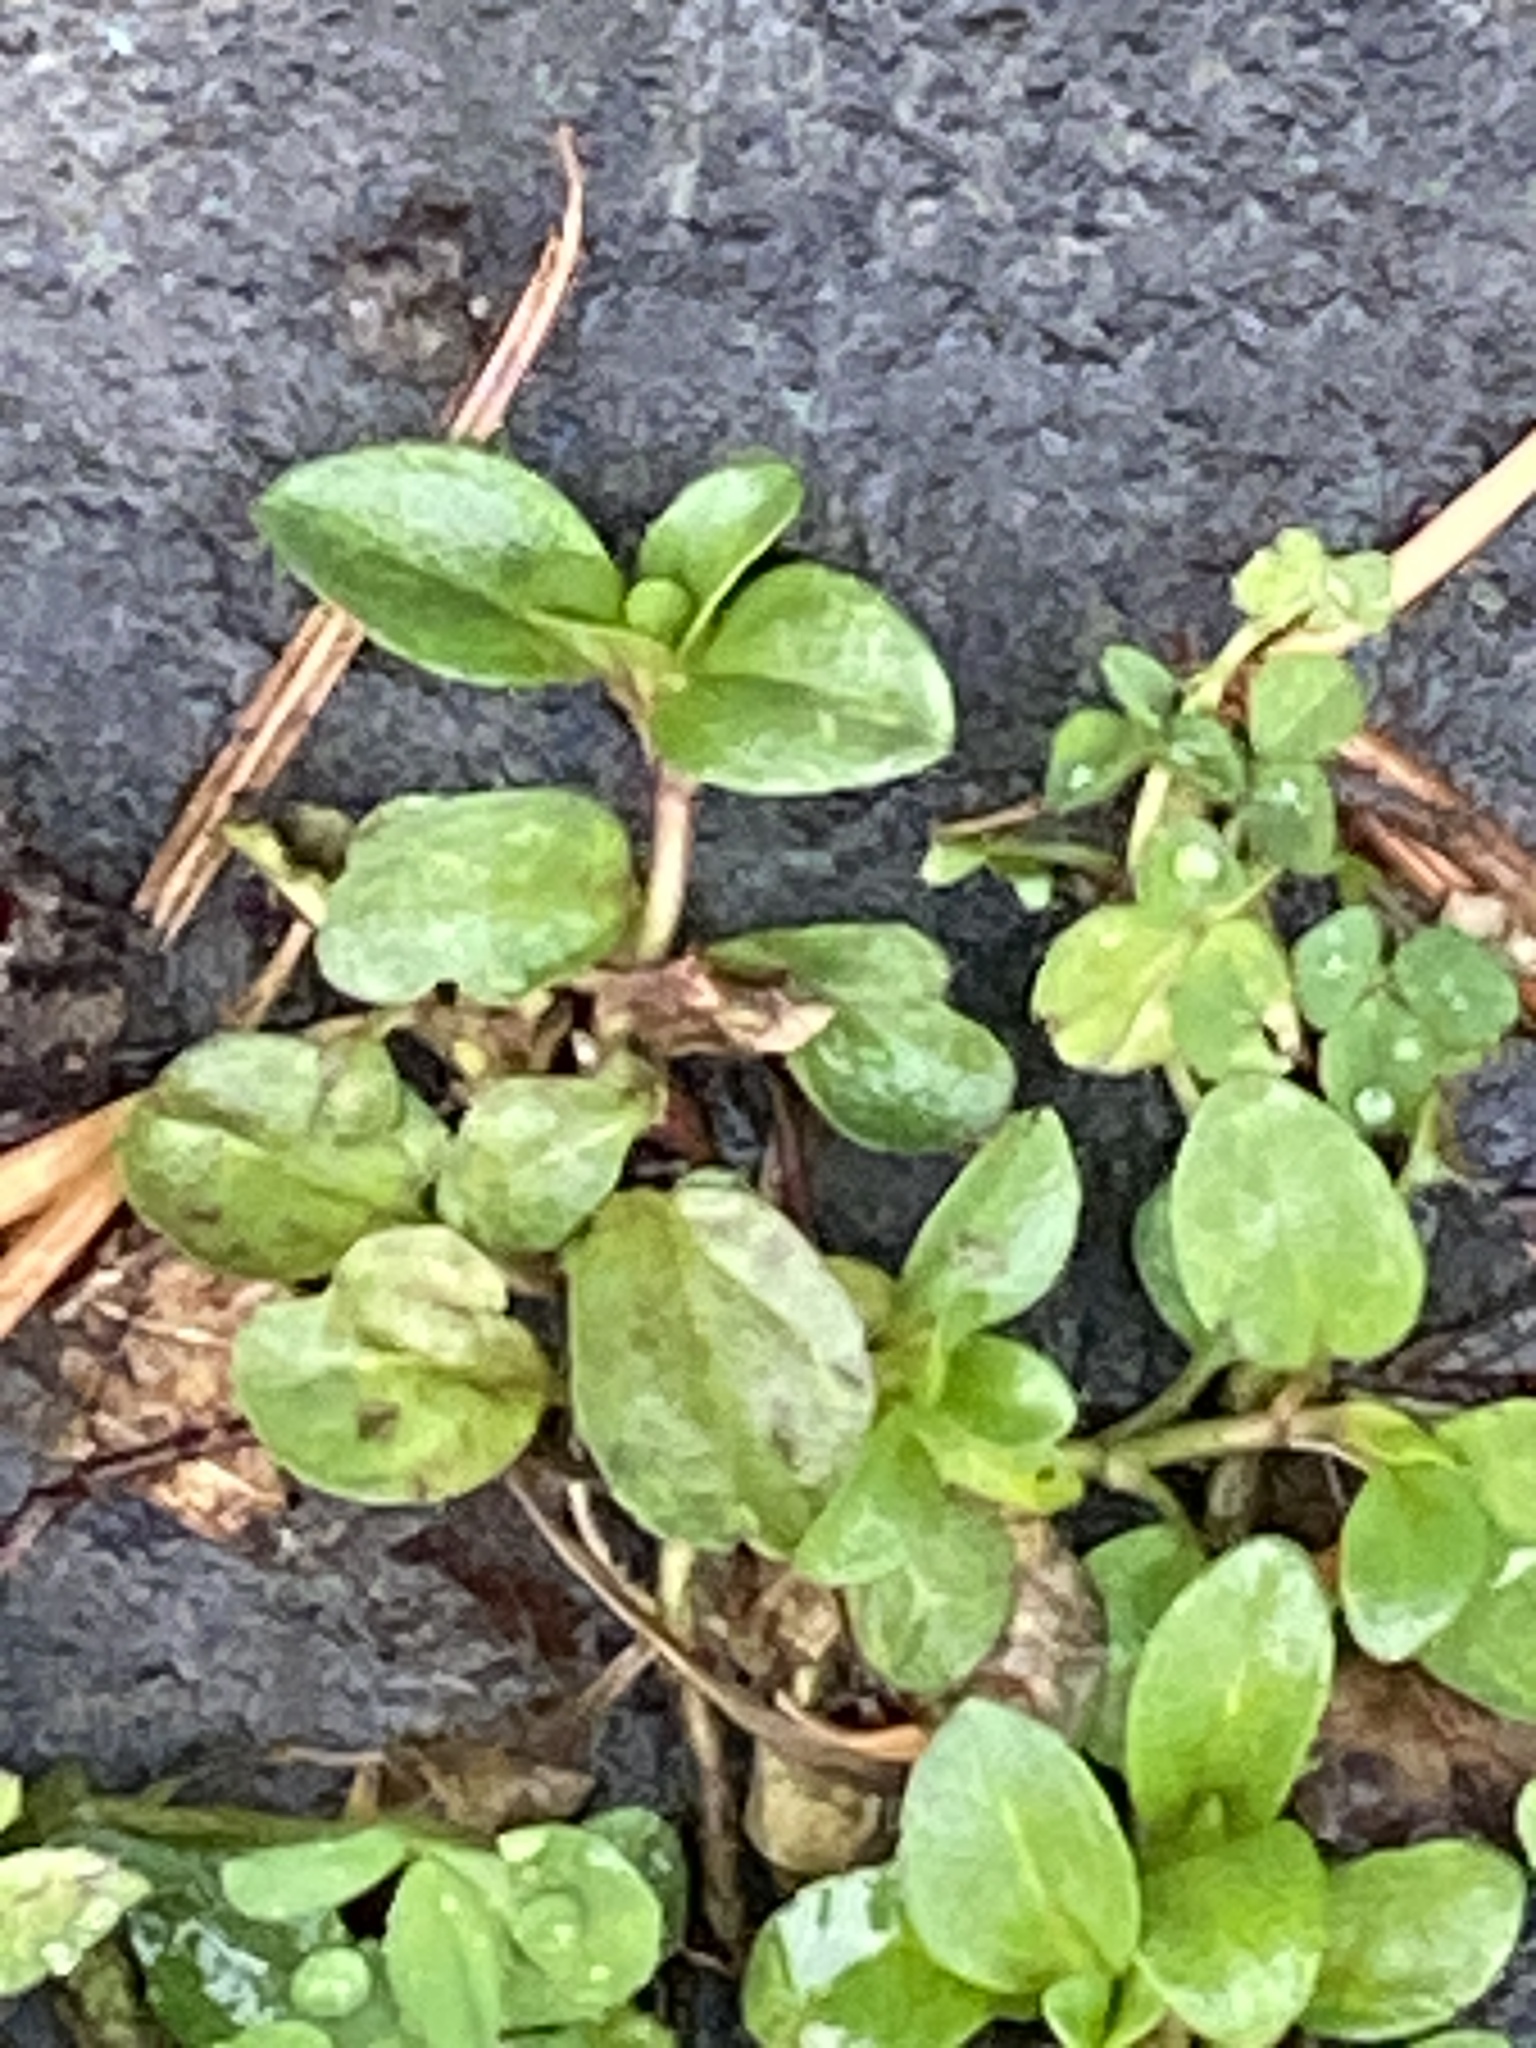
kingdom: Plantae
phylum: Tracheophyta
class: Magnoliopsida
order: Lamiales
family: Plantaginaceae
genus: Veronica
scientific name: Veronica serpyllifolia
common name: Thyme-leaved speedwell
